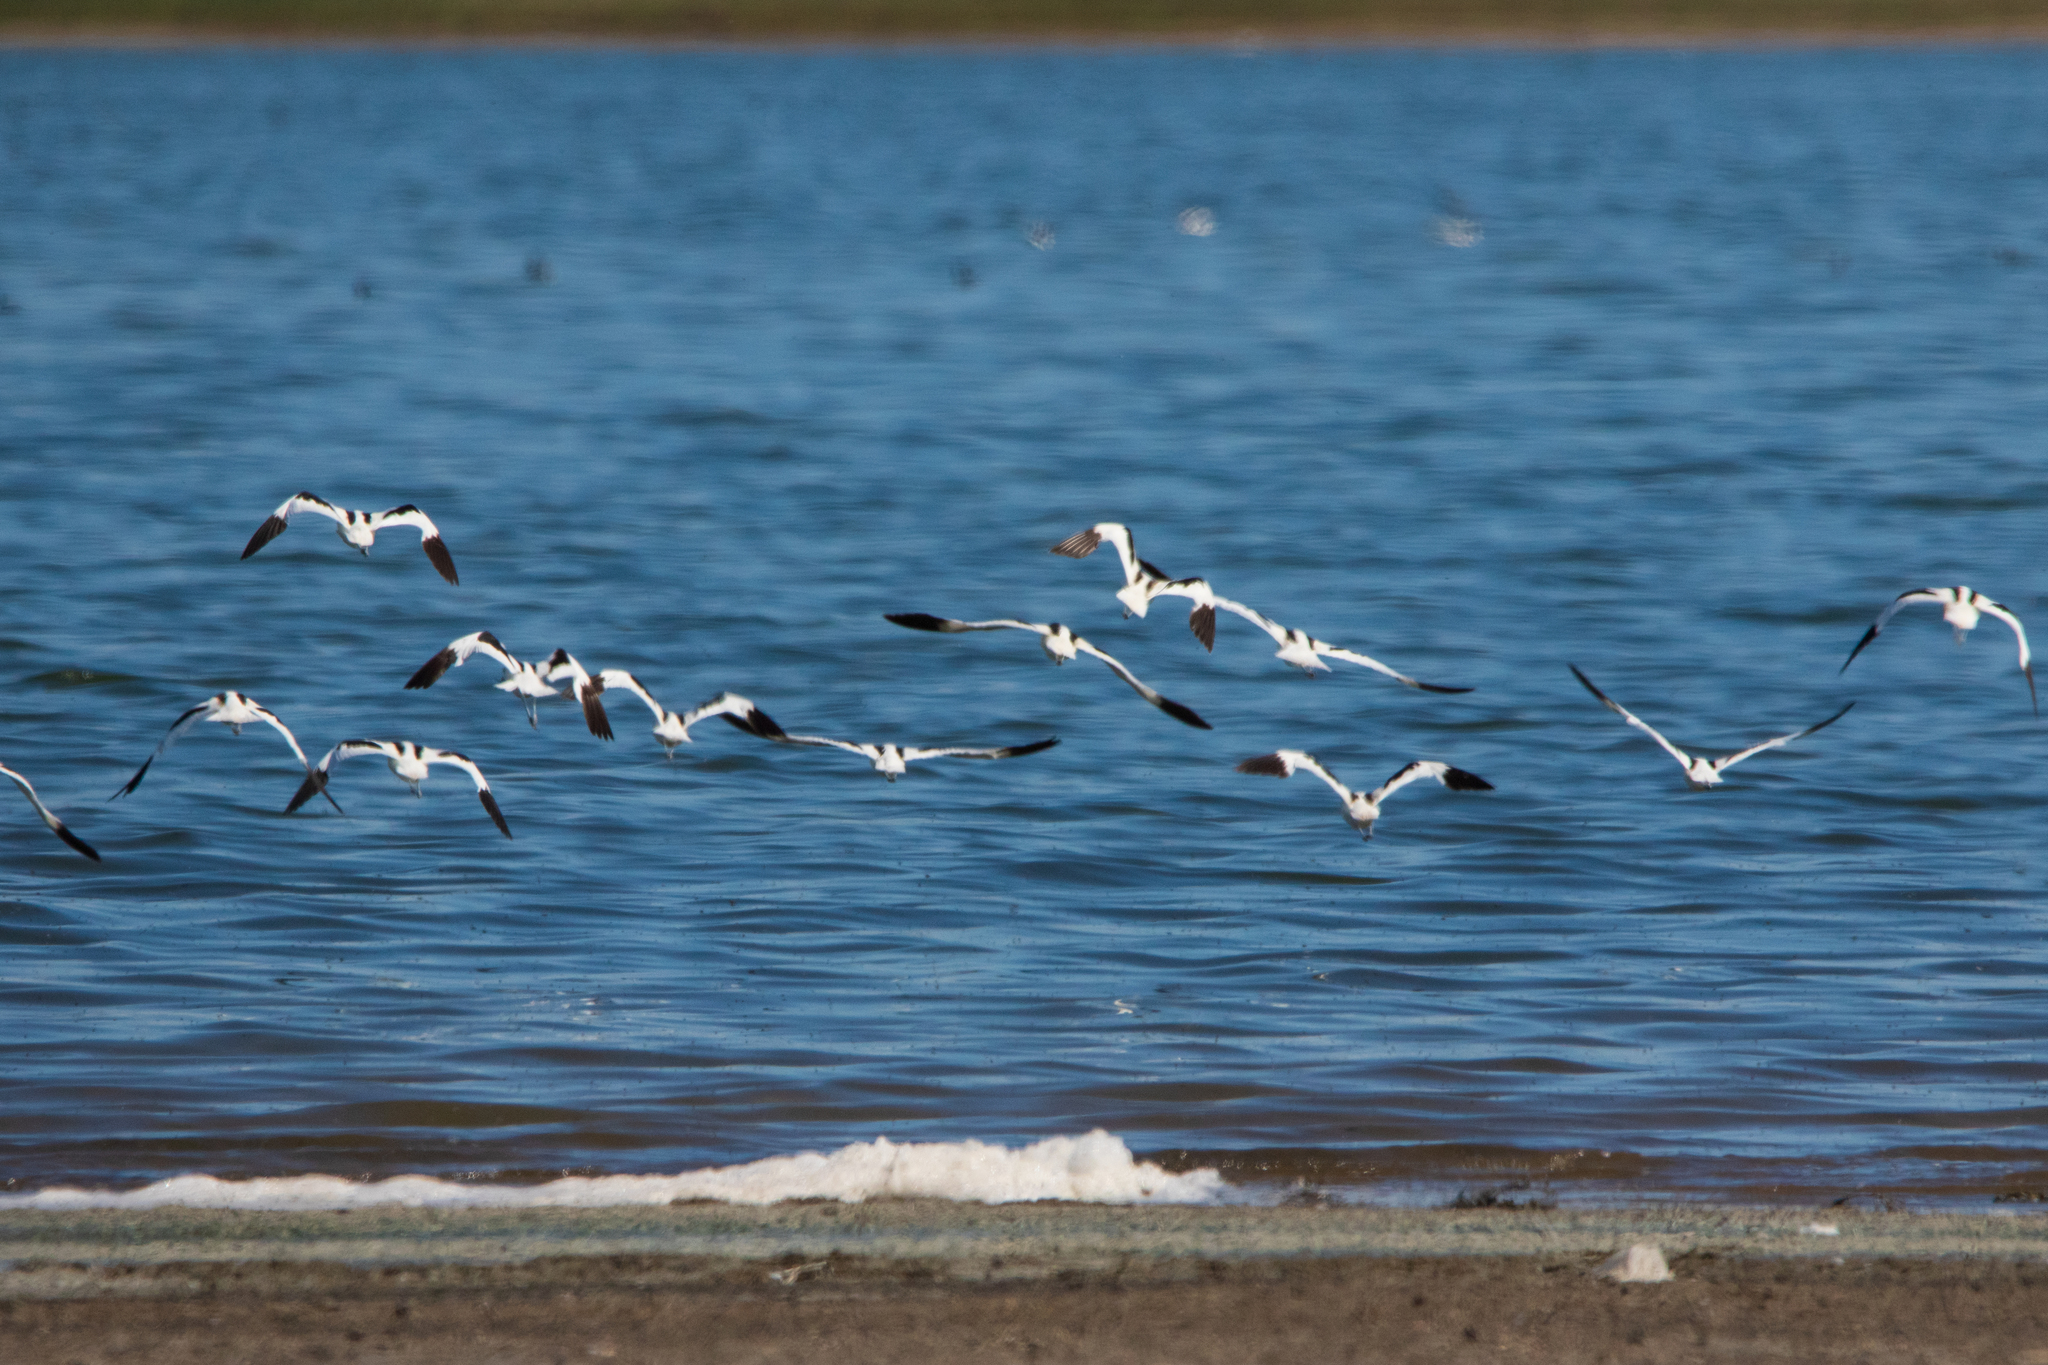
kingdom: Animalia
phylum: Chordata
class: Aves
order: Charadriiformes
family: Recurvirostridae
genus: Recurvirostra
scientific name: Recurvirostra avosetta
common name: Pied avocet
